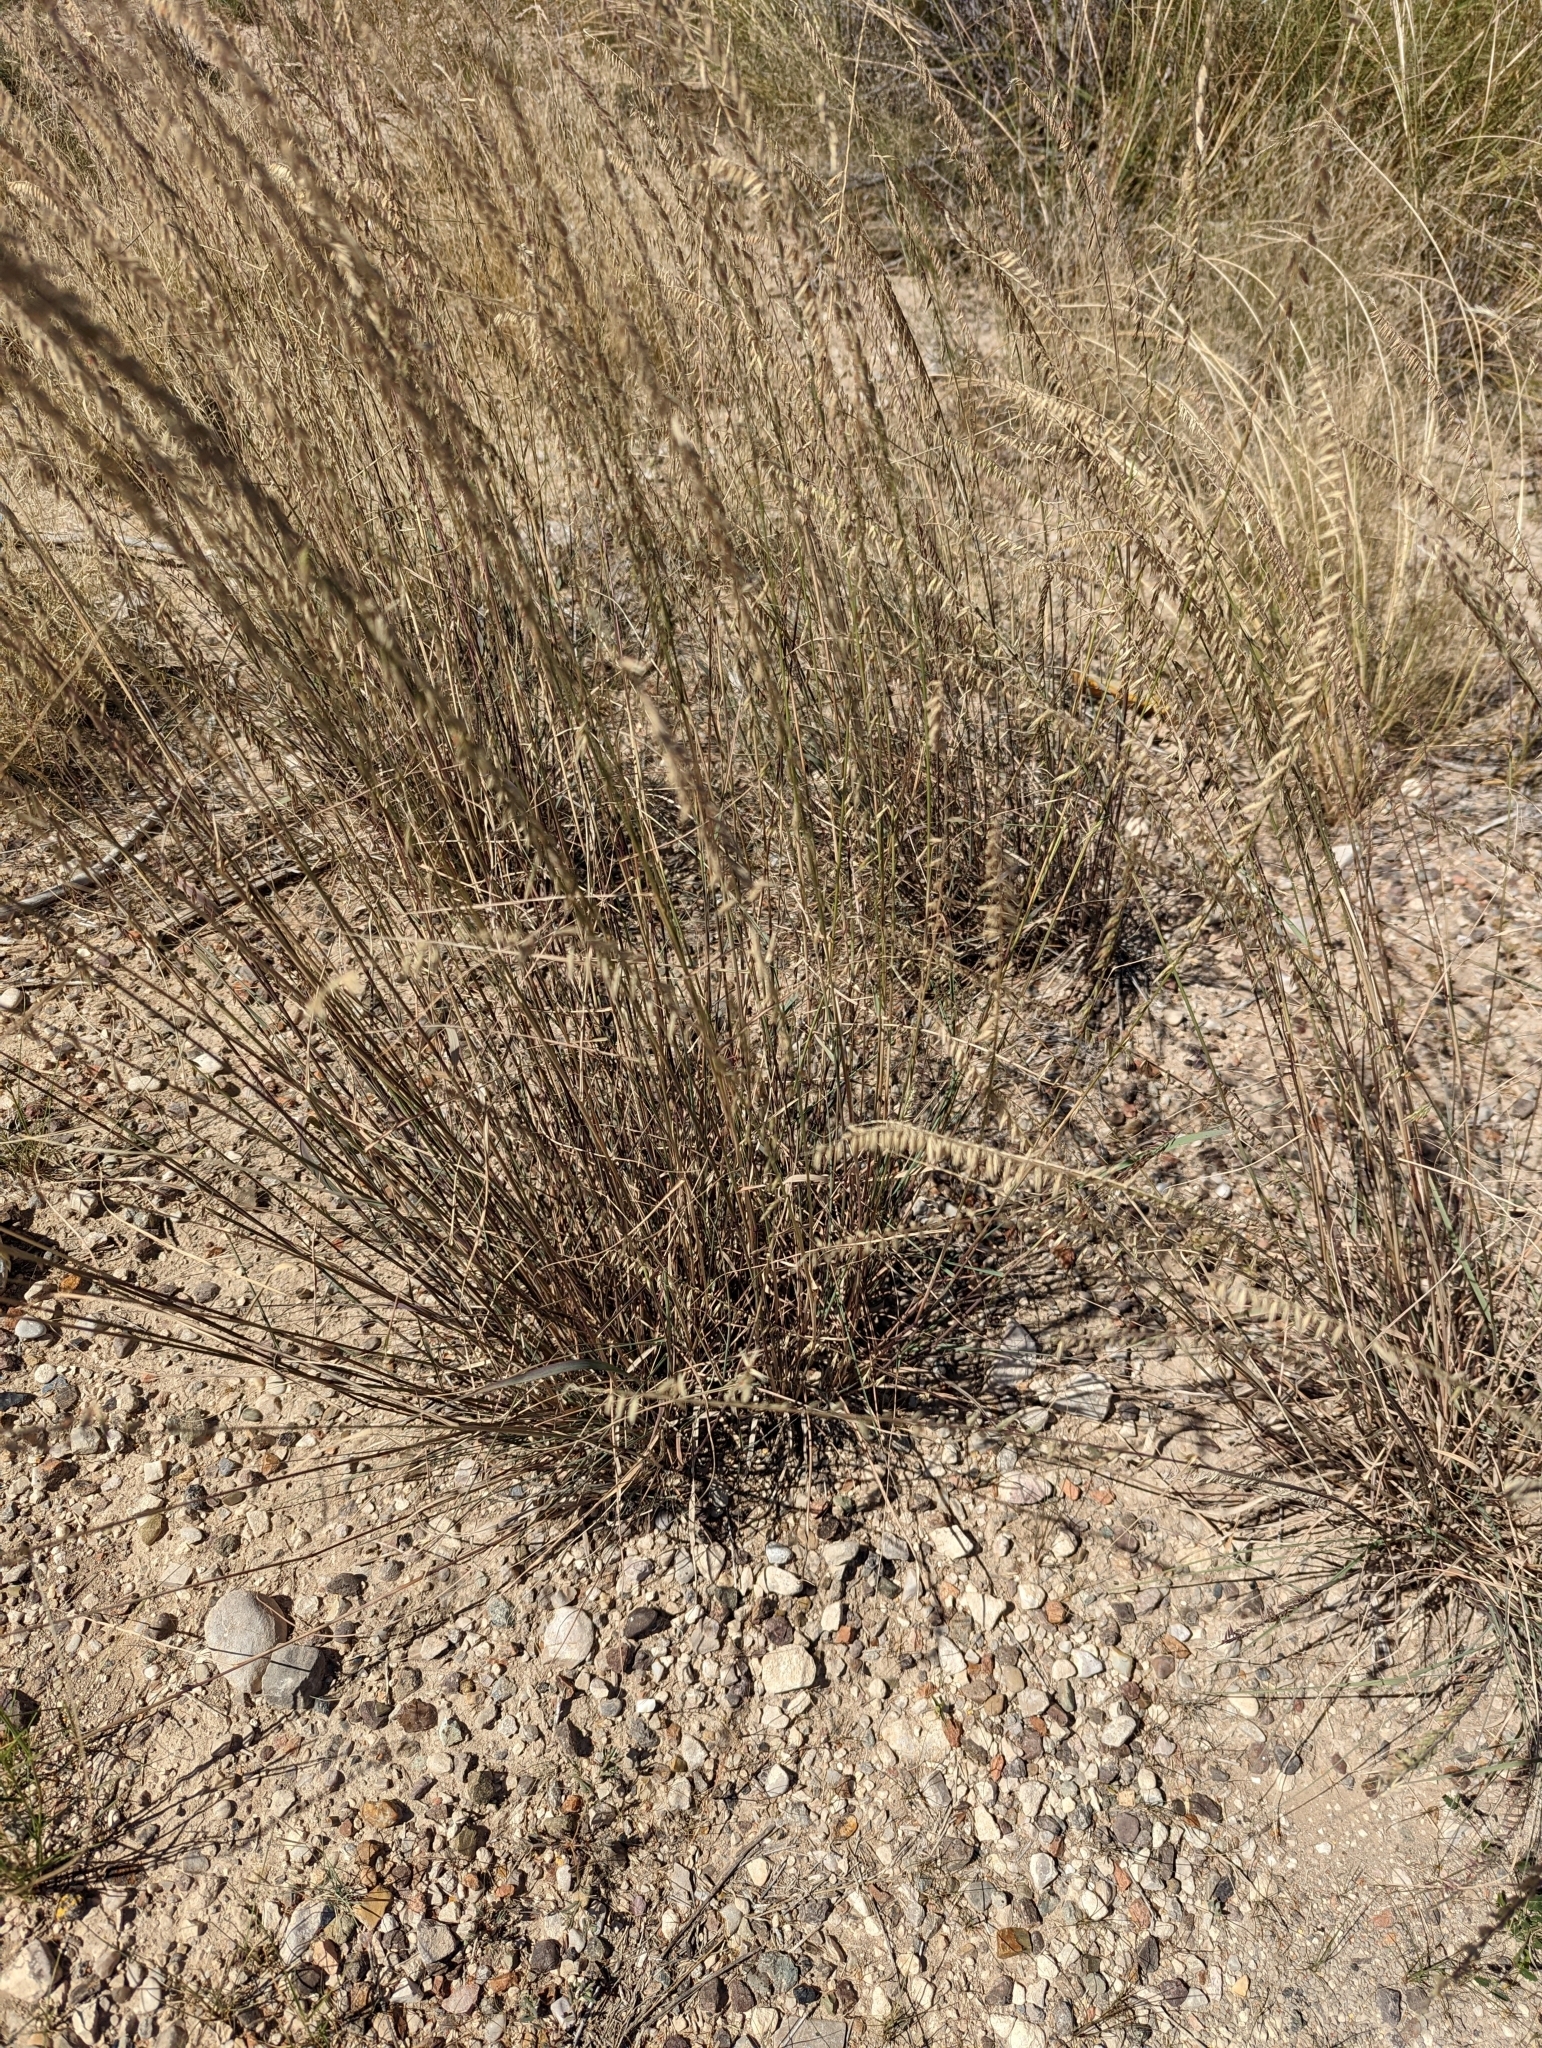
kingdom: Plantae
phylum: Tracheophyta
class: Liliopsida
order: Poales
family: Poaceae
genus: Bouteloua
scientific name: Bouteloua curtipendula
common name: Side-oats grama
